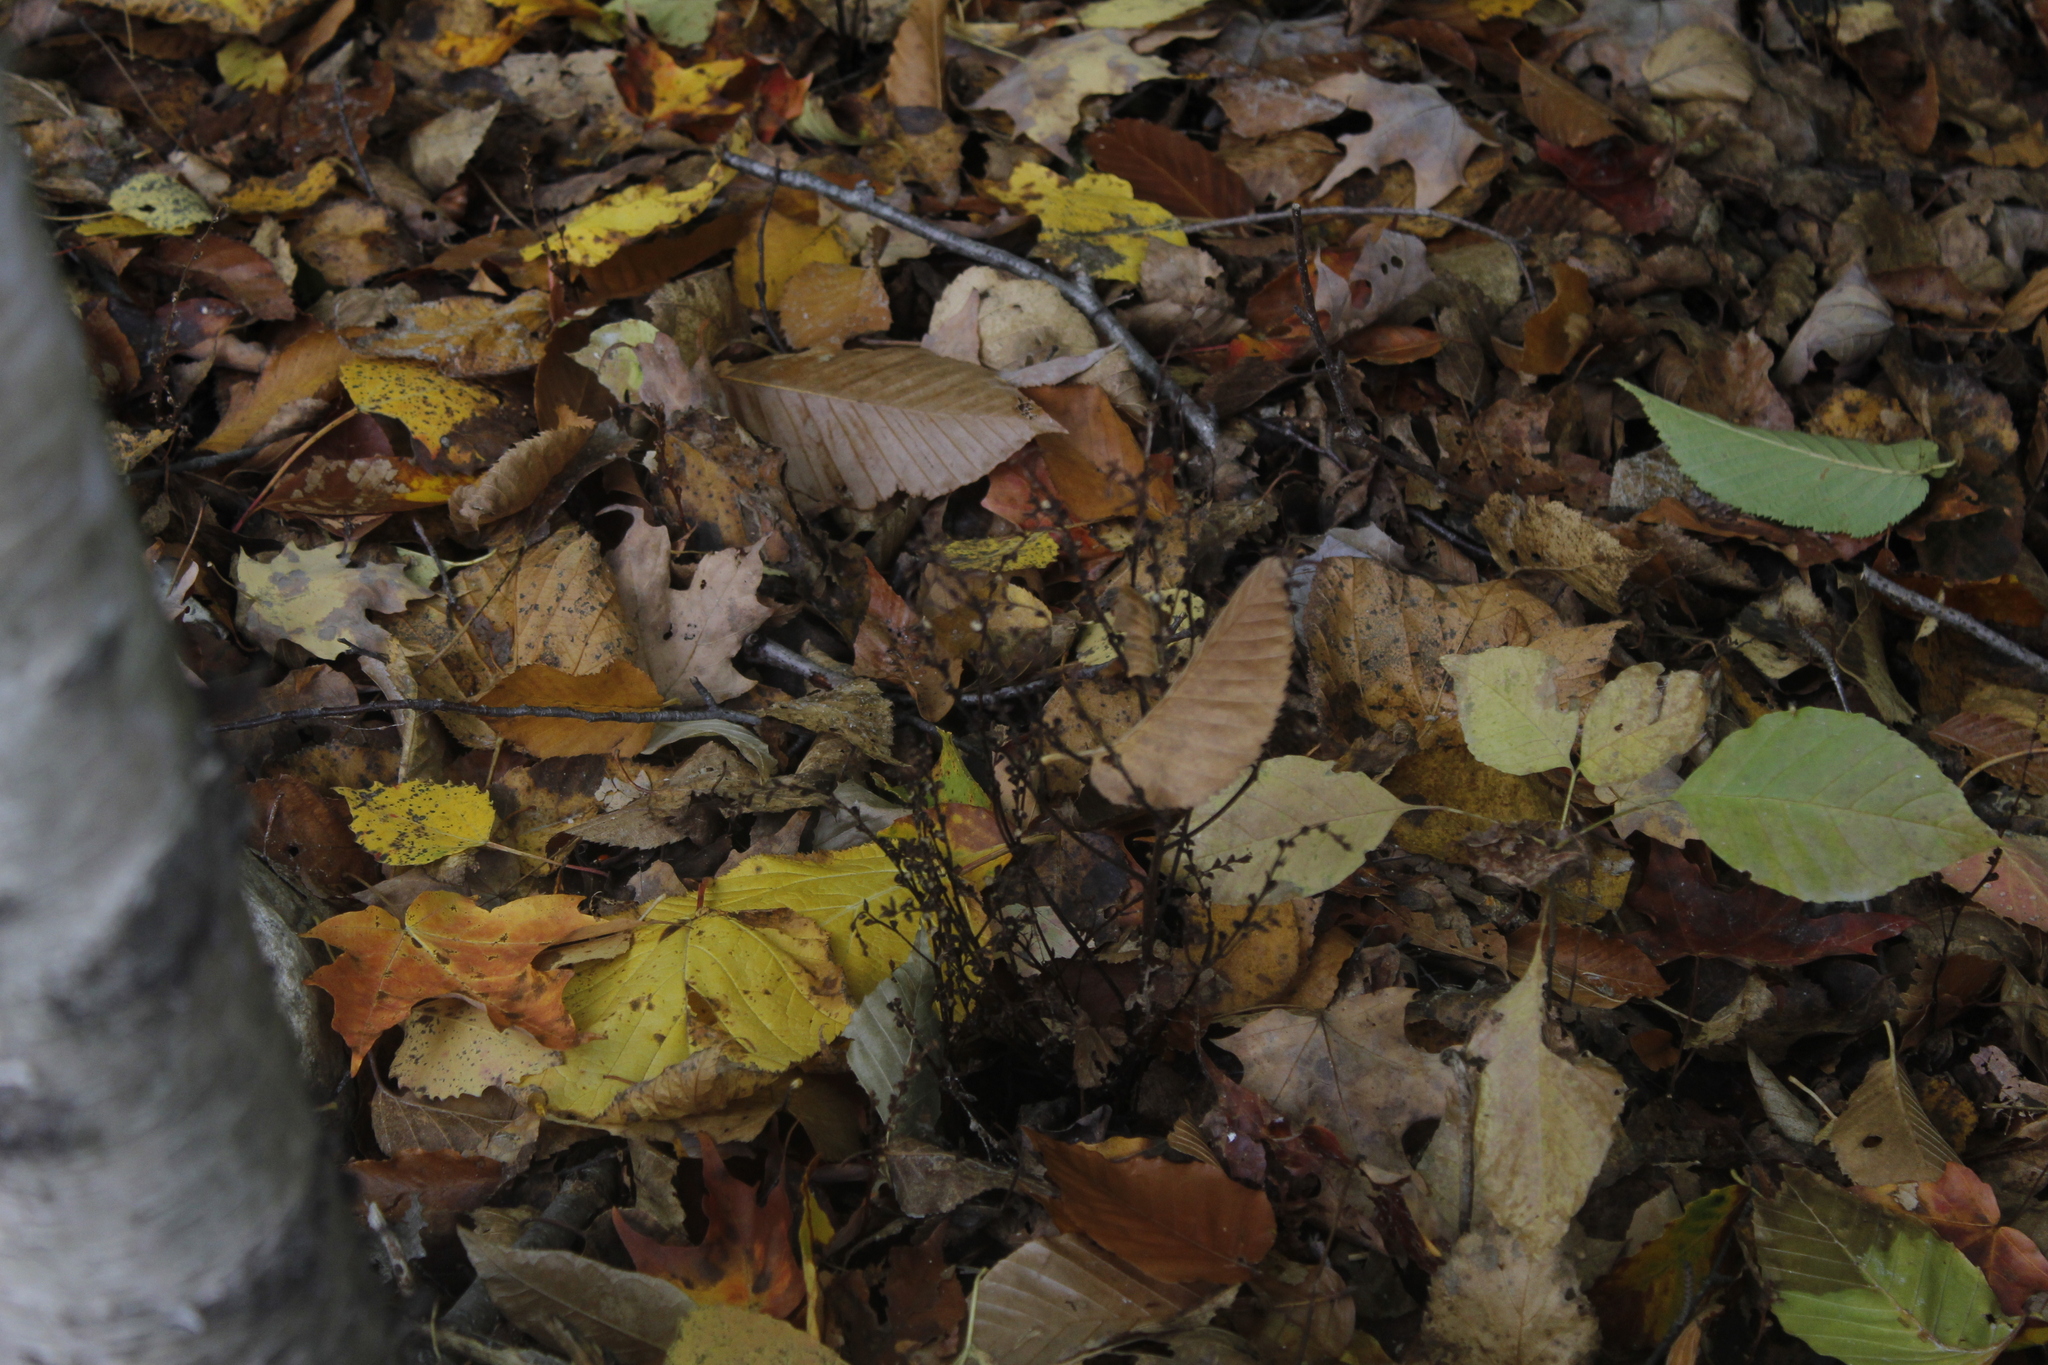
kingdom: Plantae
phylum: Tracheophyta
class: Magnoliopsida
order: Lamiales
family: Orobanchaceae
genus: Epifagus
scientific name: Epifagus virginiana
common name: Beechdrops
